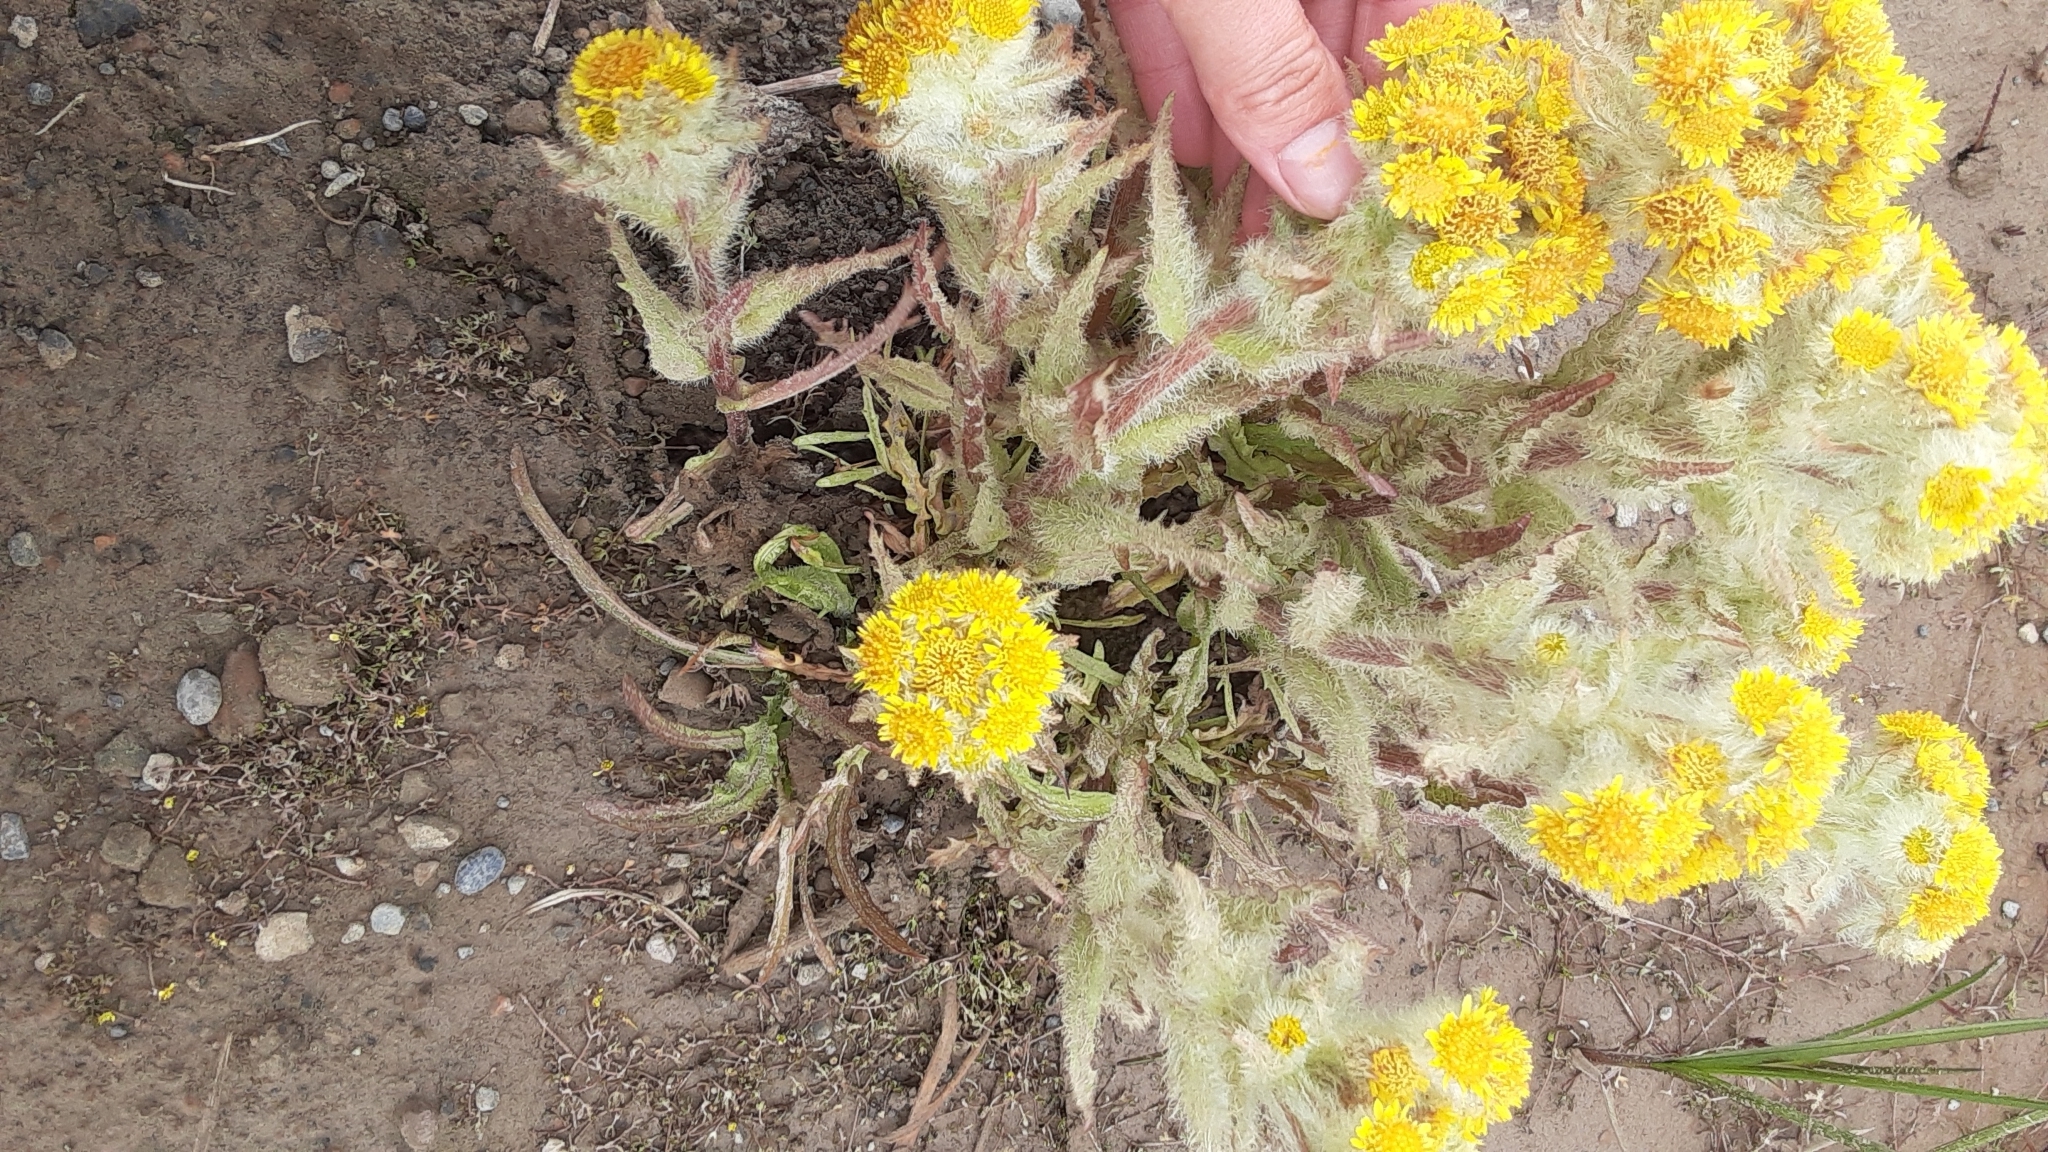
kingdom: Plantae
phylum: Tracheophyta
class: Magnoliopsida
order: Asterales
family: Asteraceae
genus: Tephroseris
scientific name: Tephroseris palustris
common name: Marsh fleawort
